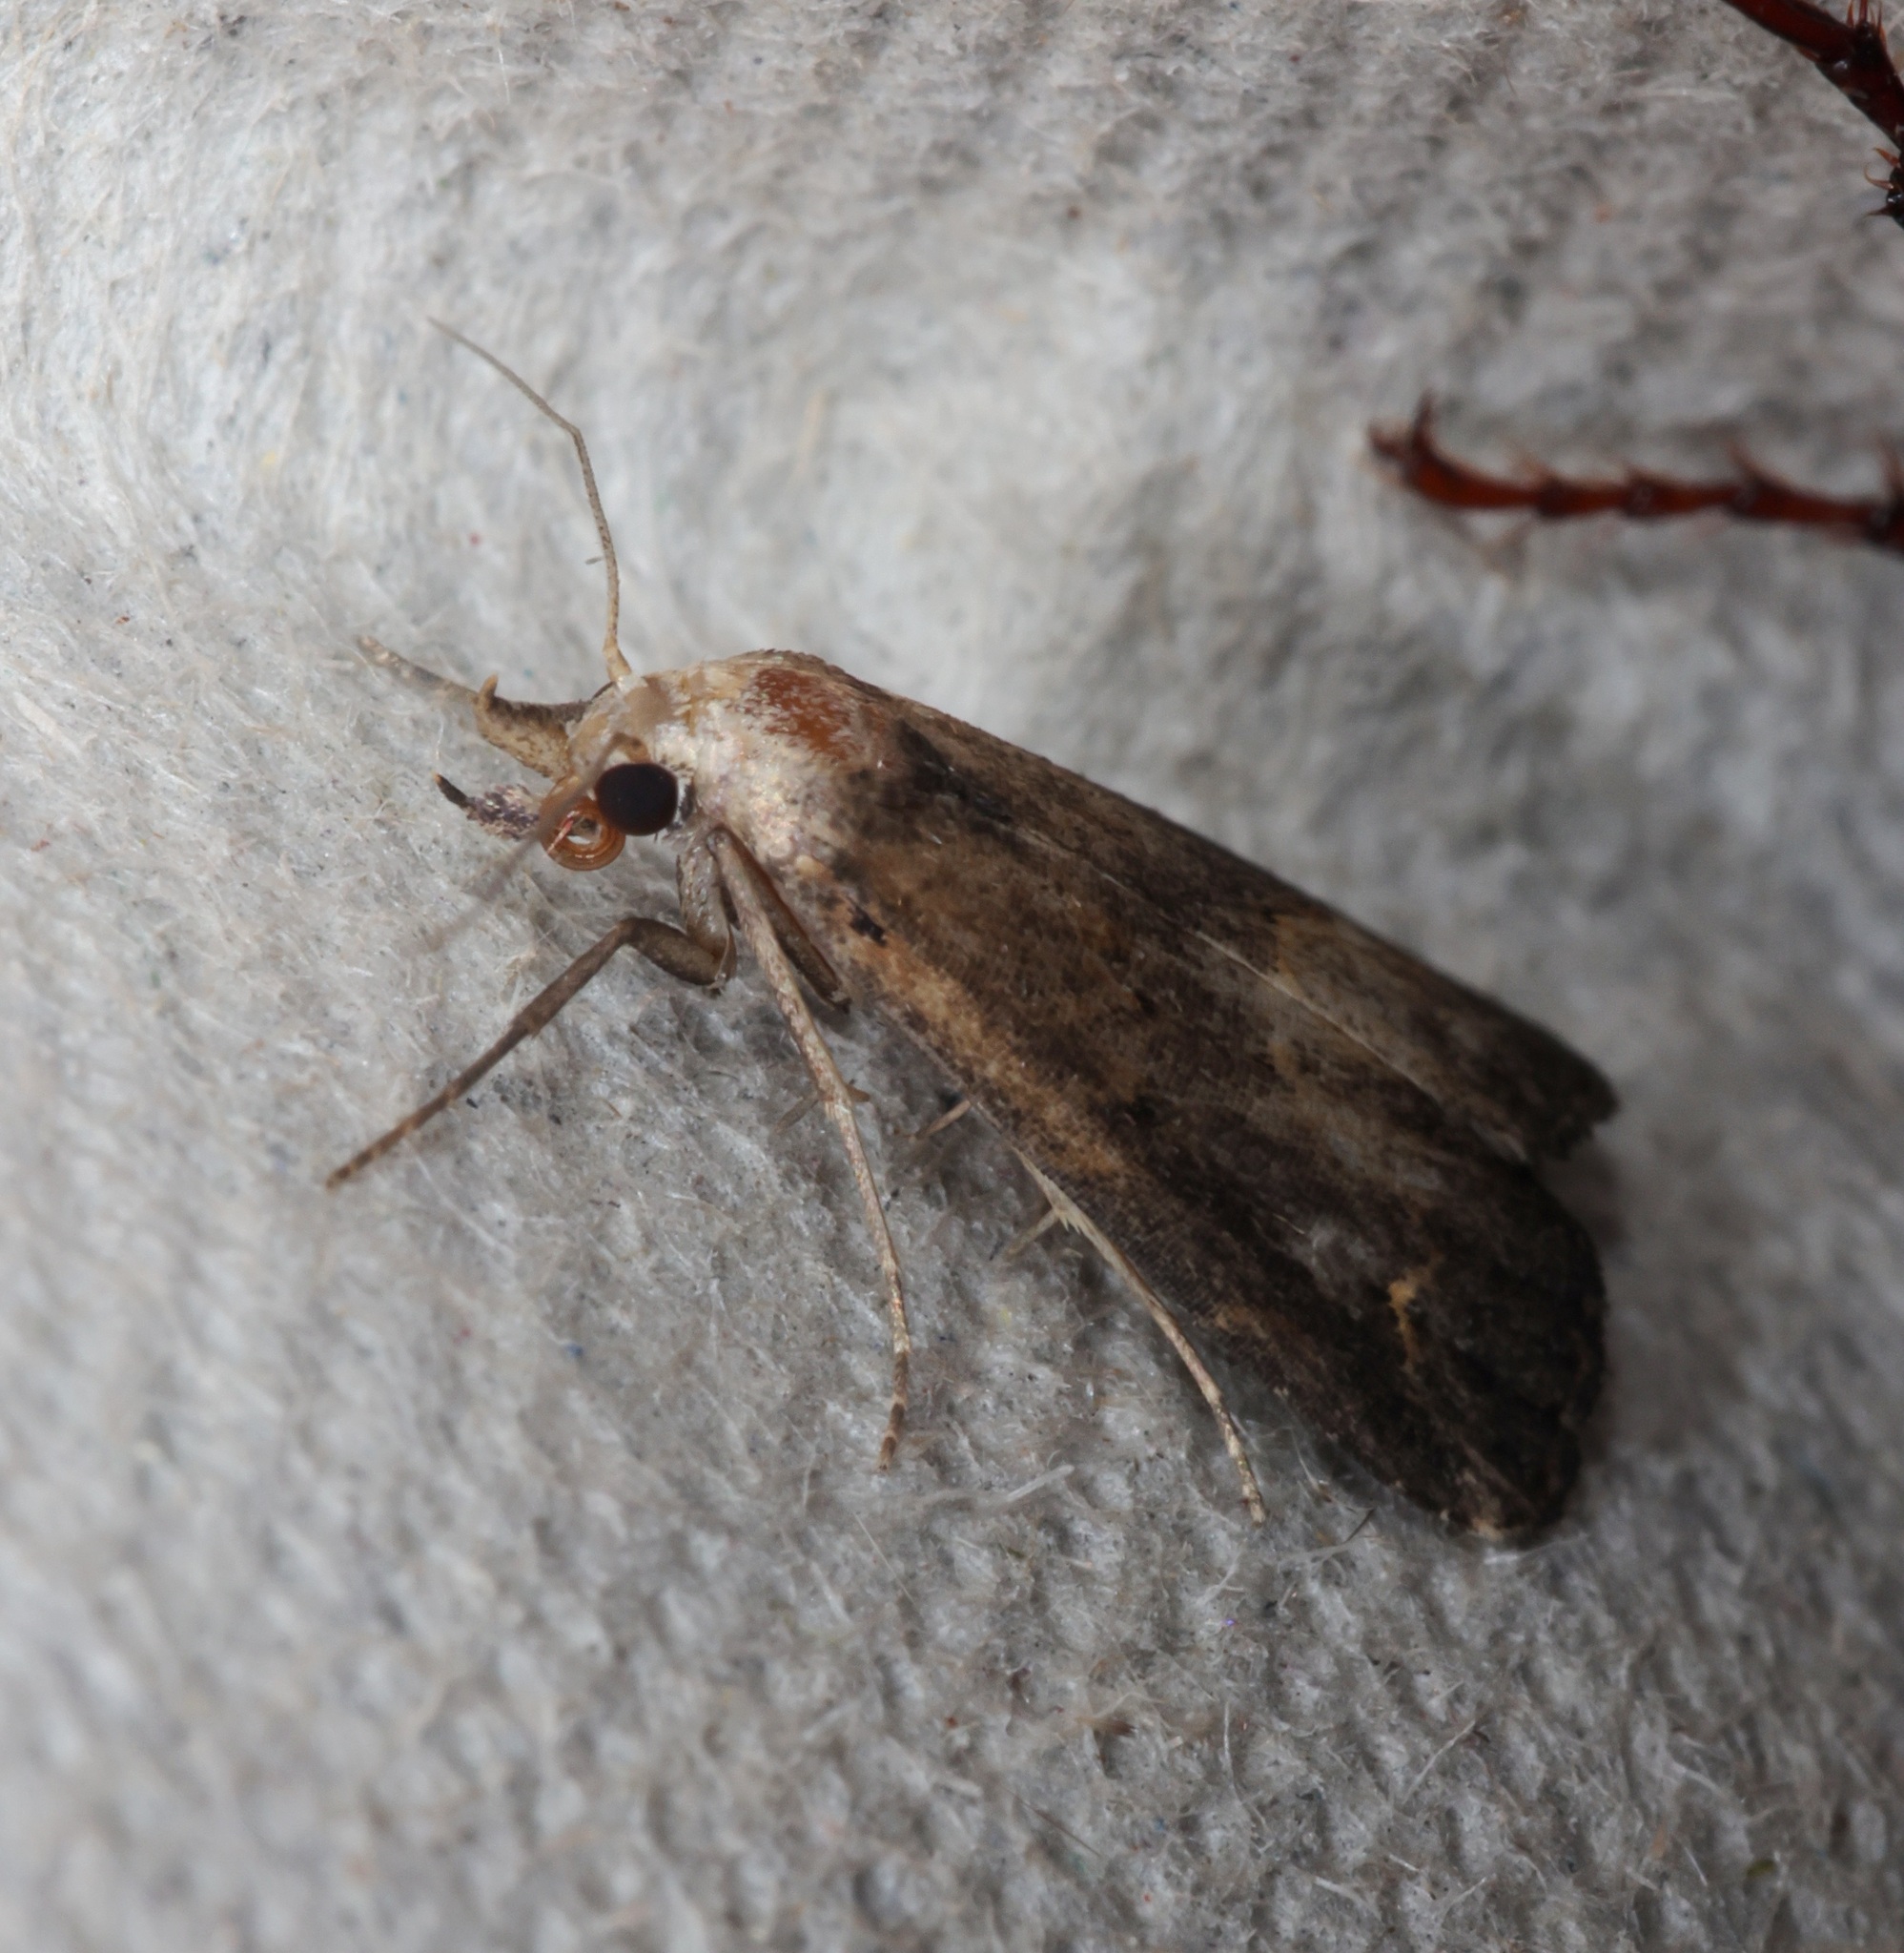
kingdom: Animalia
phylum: Arthropoda
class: Insecta
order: Lepidoptera
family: Erebidae
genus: Schrankia
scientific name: Schrankia costaestrigalis
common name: Pinion-streaked snout
